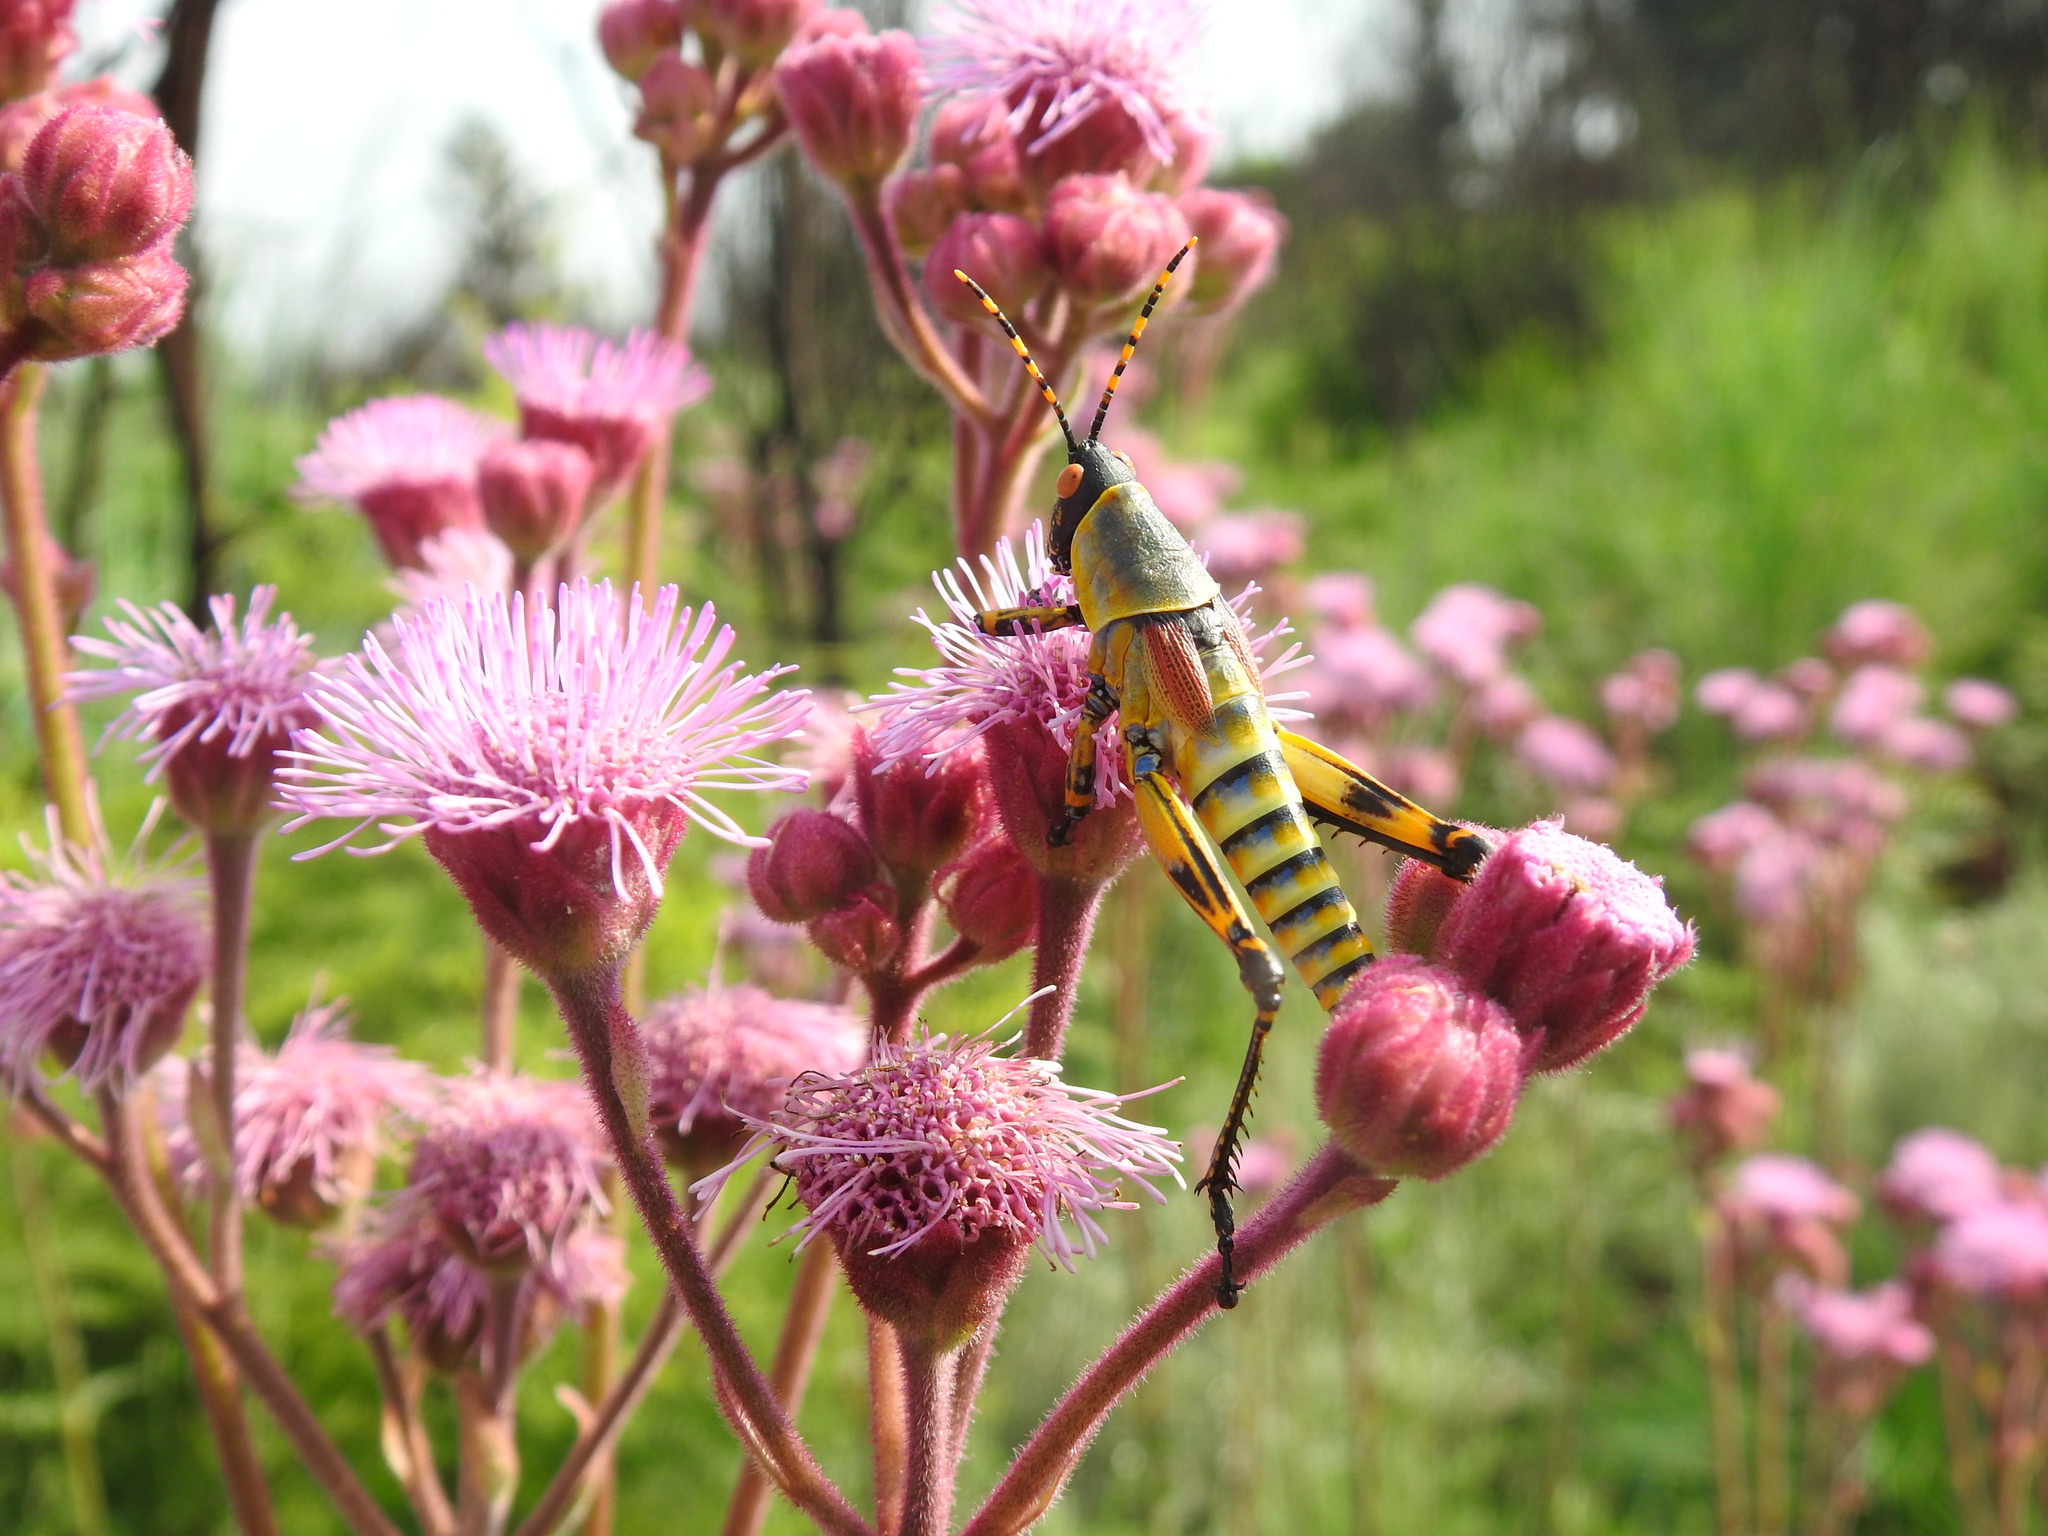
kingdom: Animalia
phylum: Arthropoda
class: Insecta
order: Orthoptera
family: Pyrgomorphidae
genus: Zonocerus
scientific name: Zonocerus elegans
